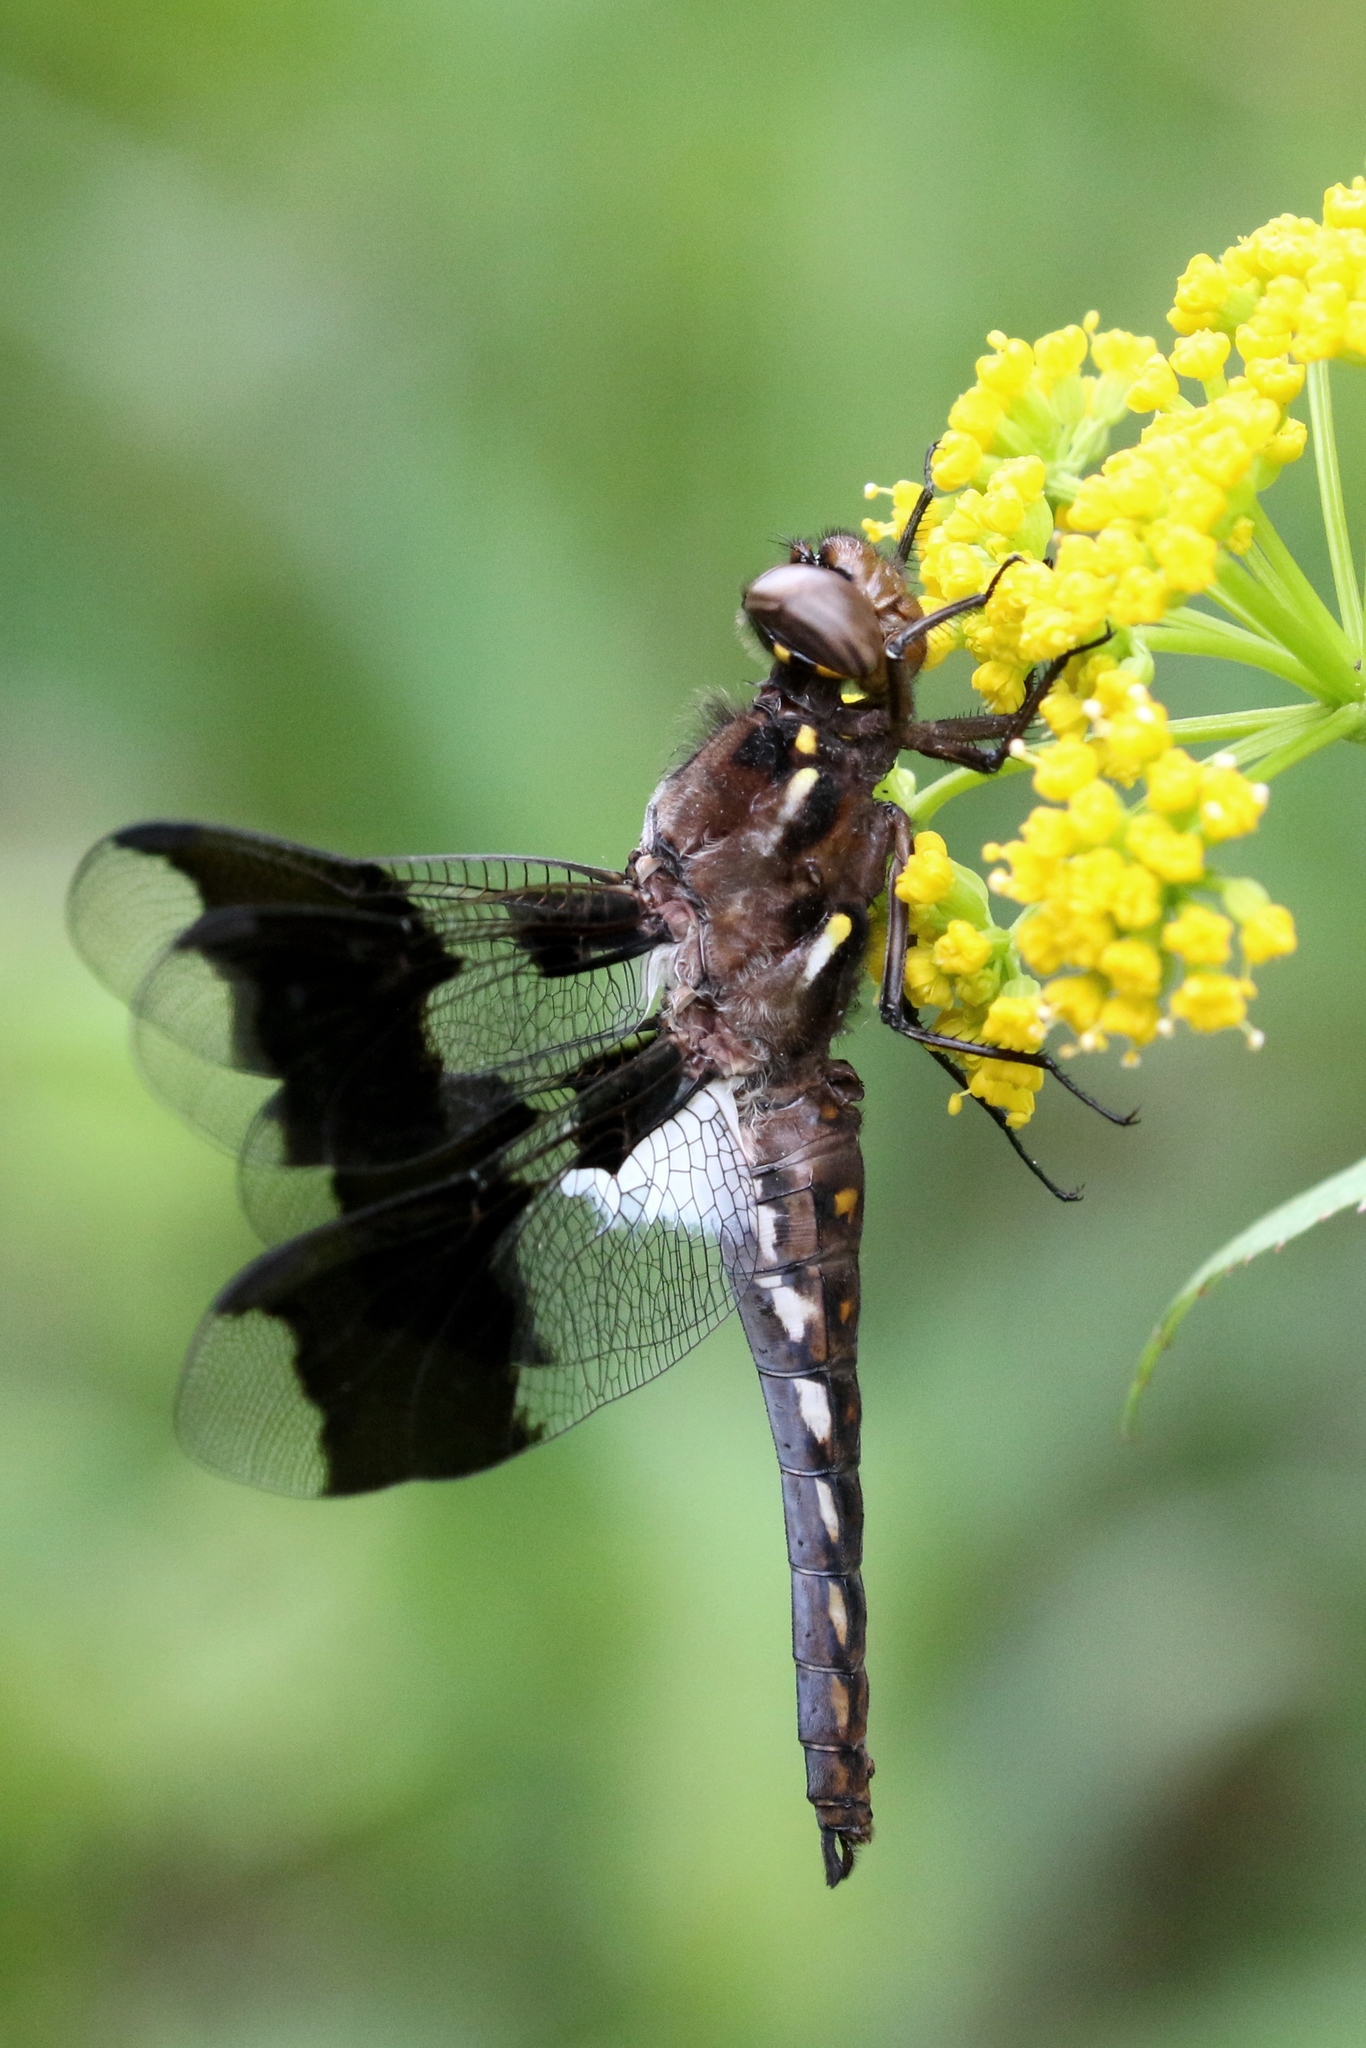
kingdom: Animalia
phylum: Arthropoda
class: Insecta
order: Odonata
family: Libellulidae
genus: Plathemis
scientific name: Plathemis lydia
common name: Common whitetail
